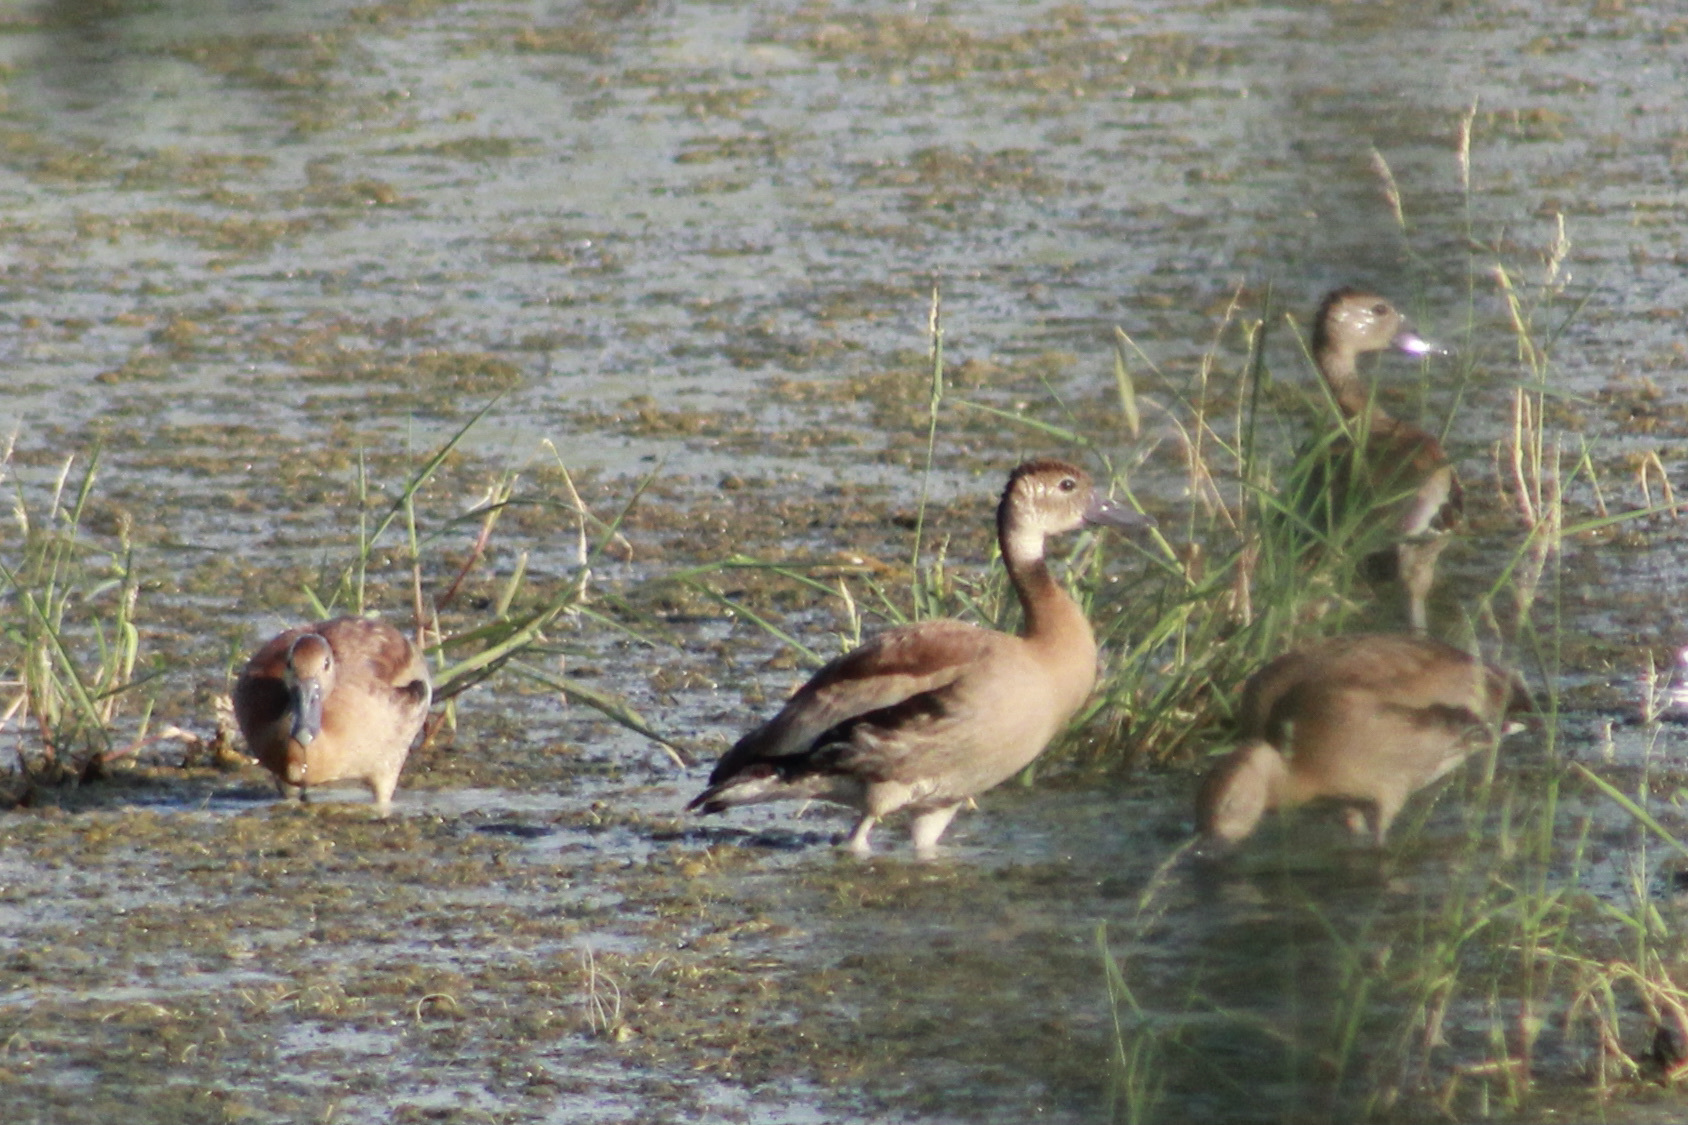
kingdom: Animalia
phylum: Chordata
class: Aves
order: Anseriformes
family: Anatidae
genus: Dendrocygna
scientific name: Dendrocygna autumnalis
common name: Black-bellied whistling duck
